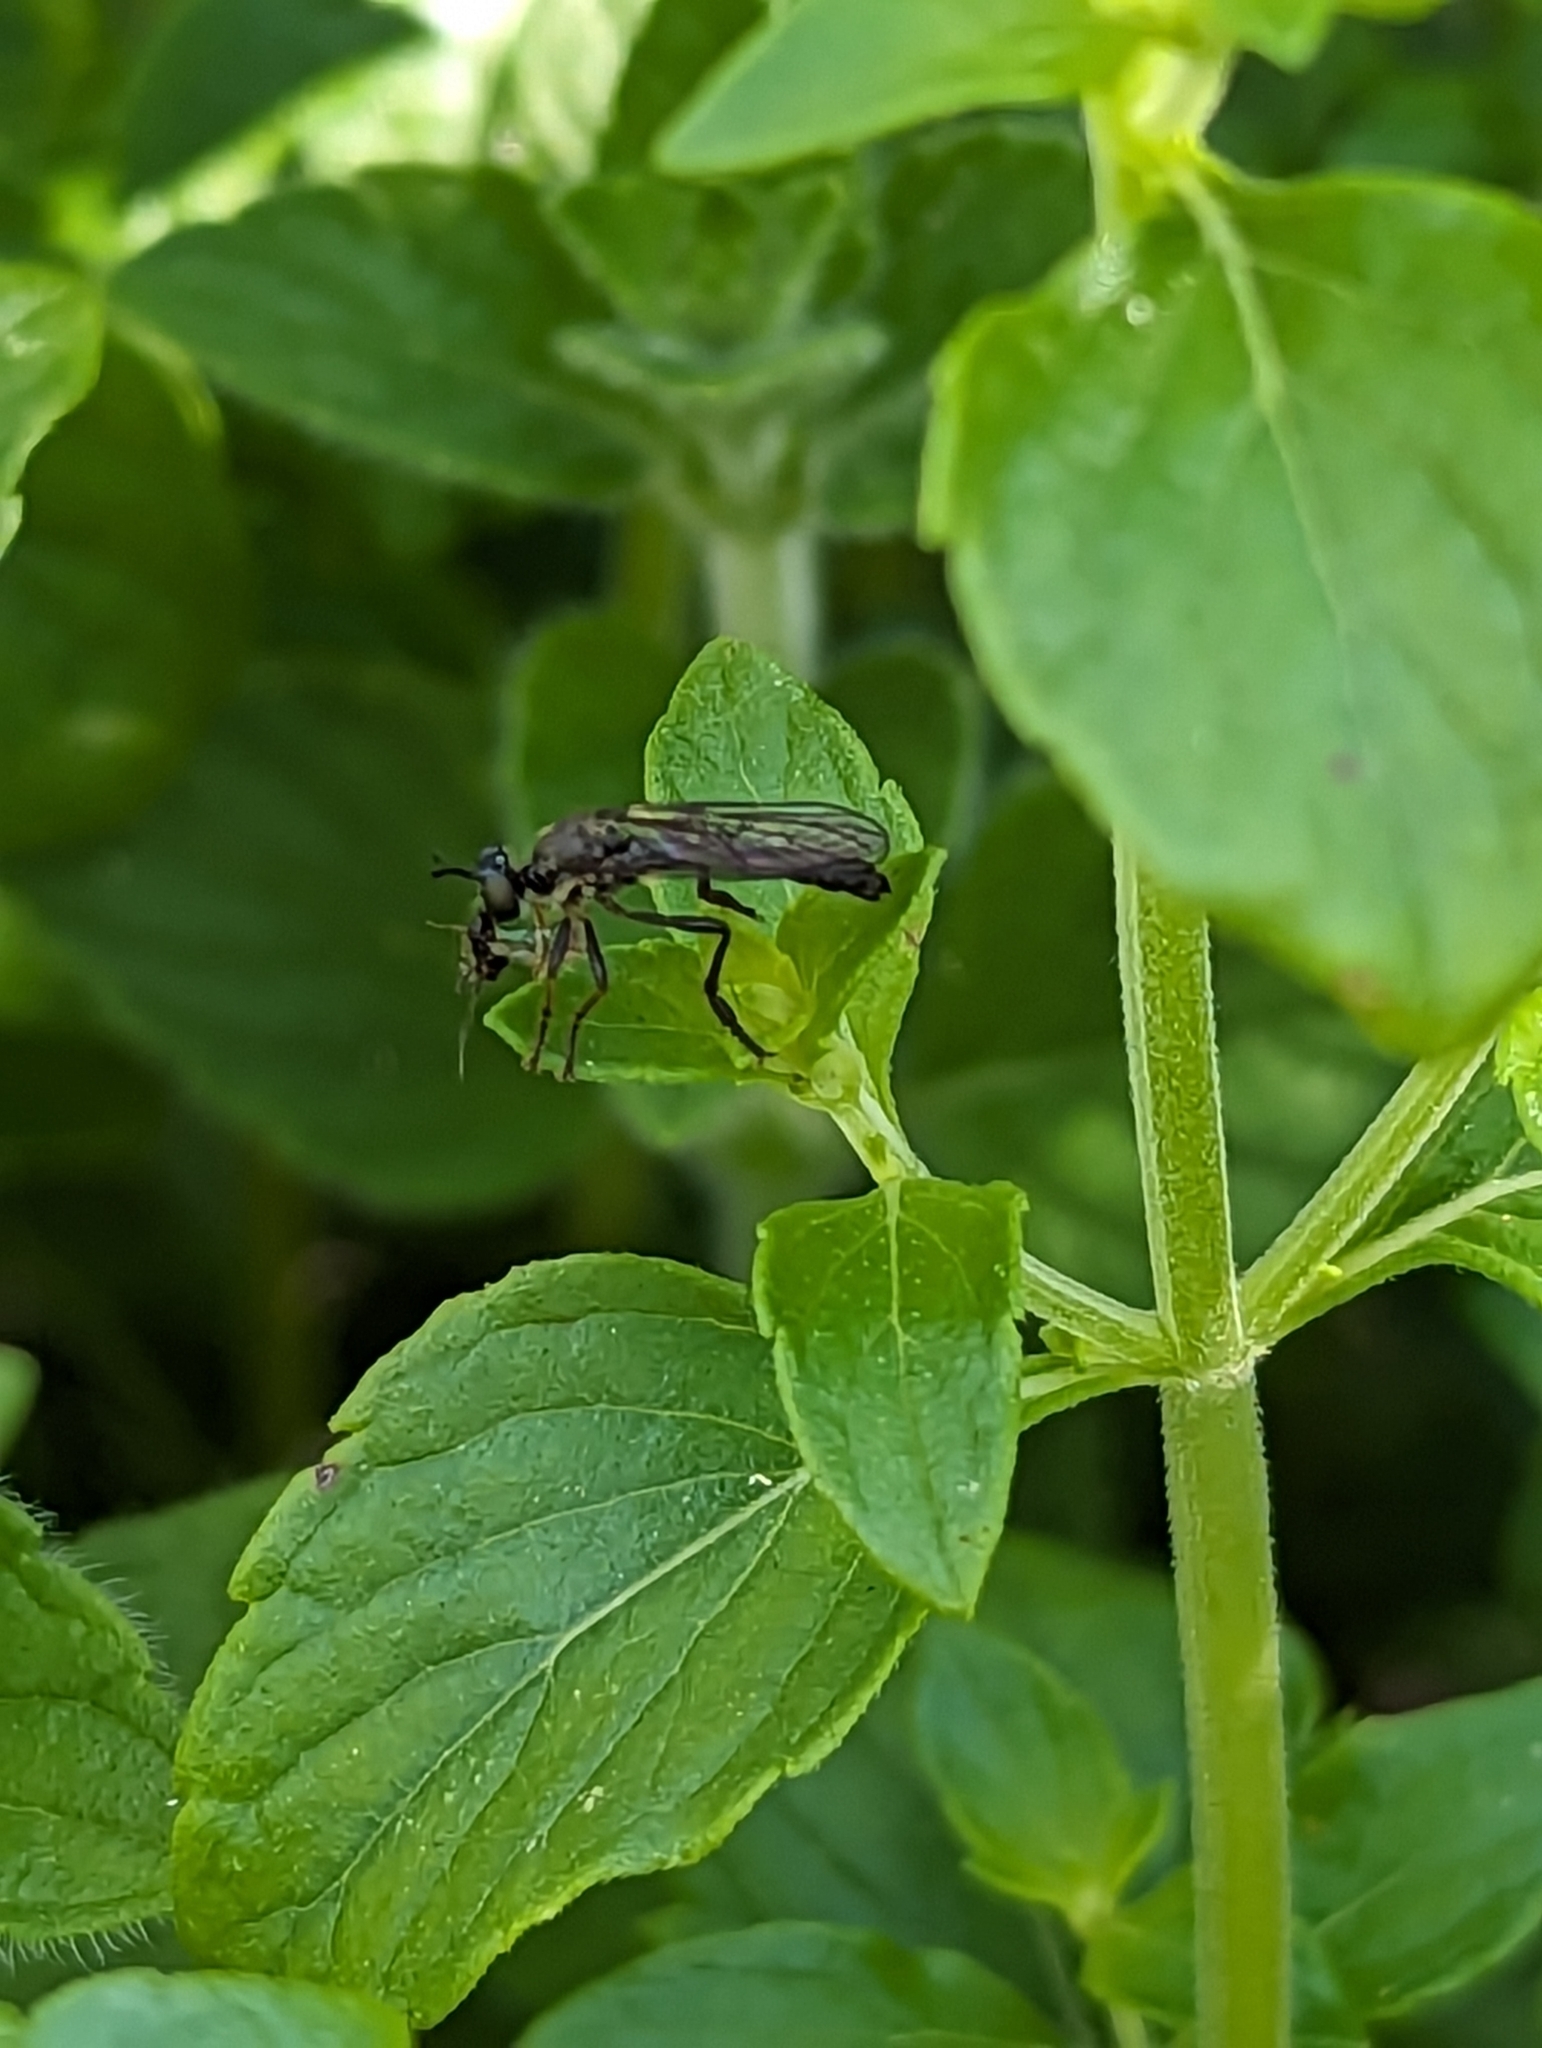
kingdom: Animalia
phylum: Arthropoda
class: Insecta
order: Diptera
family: Asilidae
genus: Dioctria
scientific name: Dioctria hyalipennis
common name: Stripe-legged robberfly
